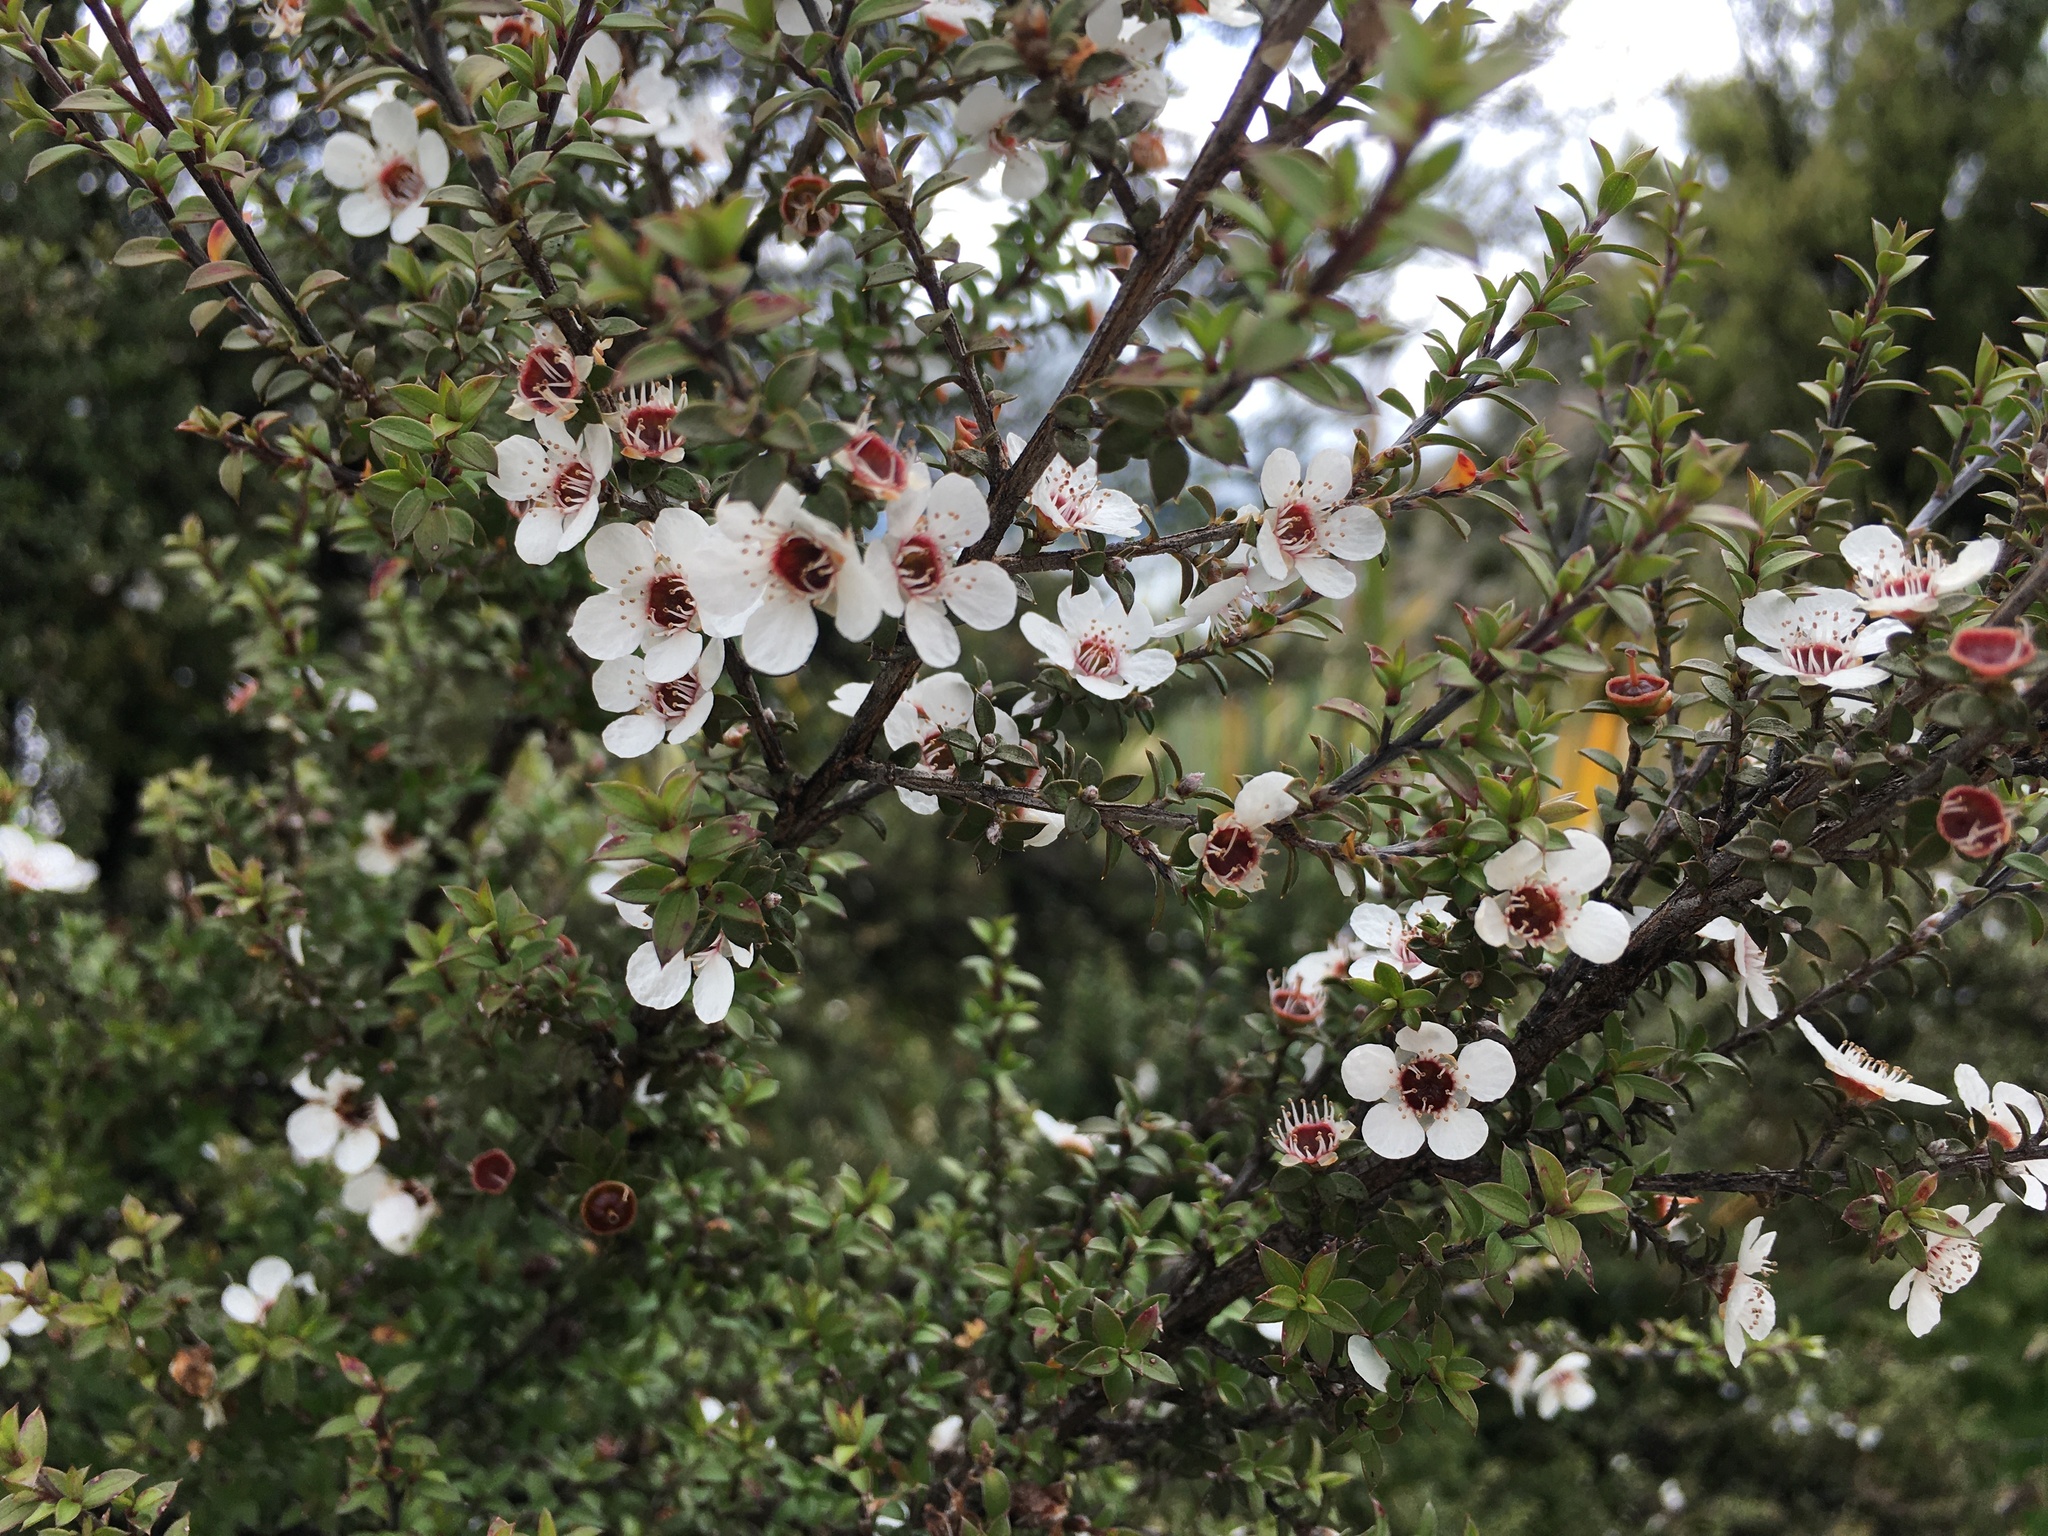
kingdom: Plantae
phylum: Tracheophyta
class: Magnoliopsida
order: Myrtales
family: Myrtaceae
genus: Leptospermum
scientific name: Leptospermum scoparium
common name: Broom tea-tree
